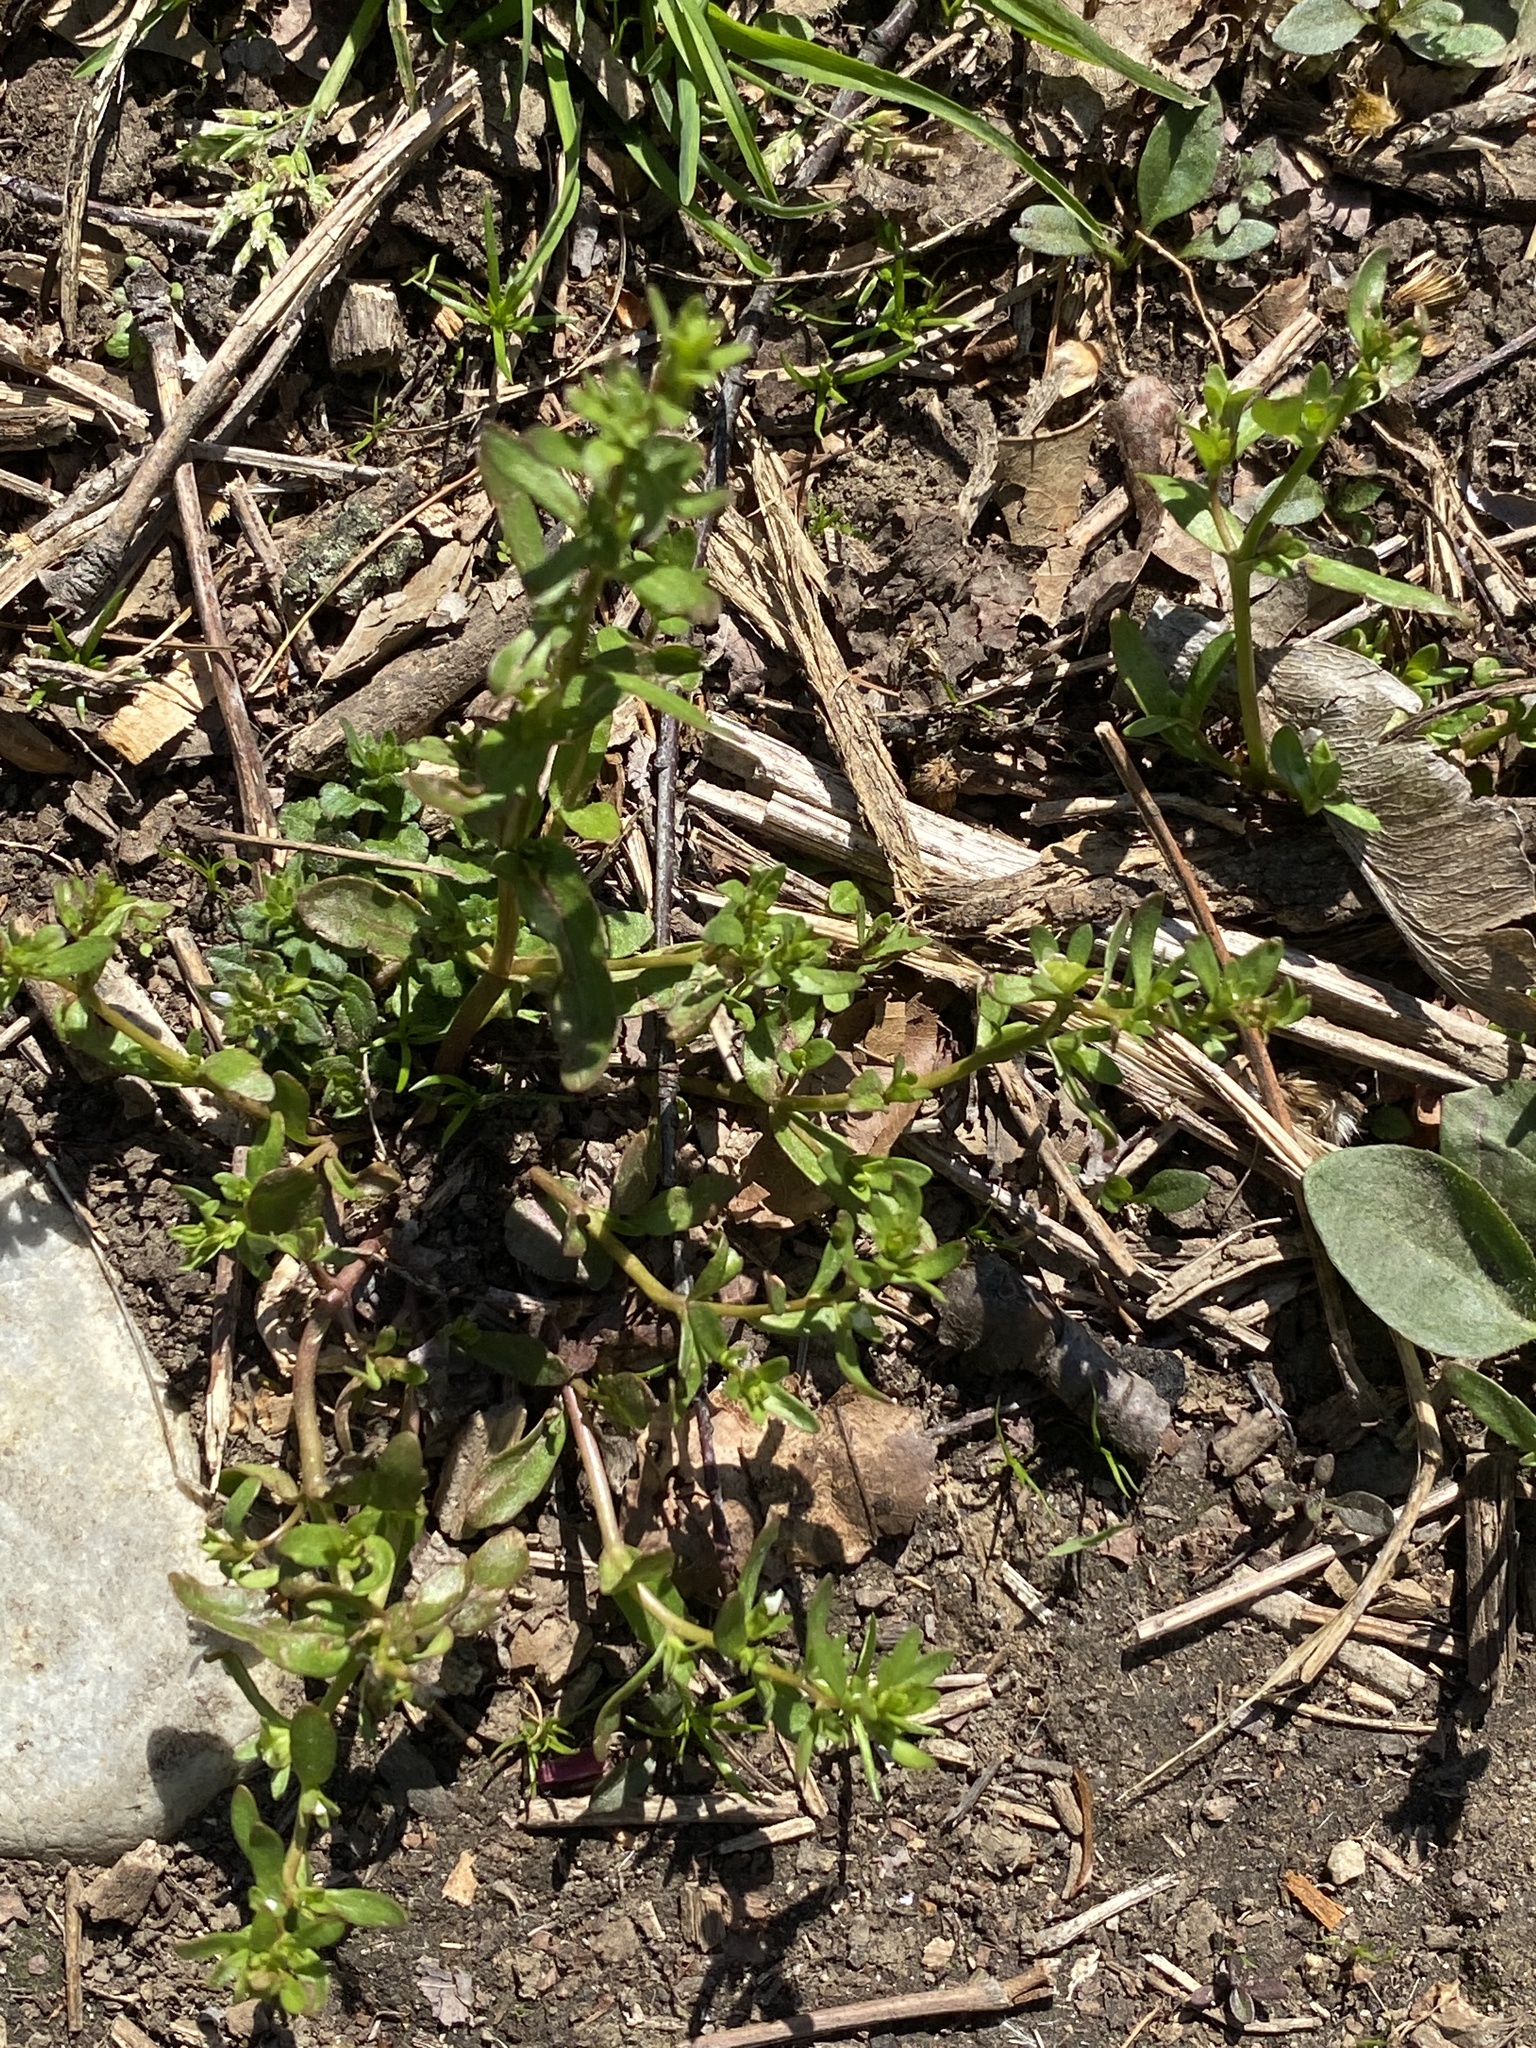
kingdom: Plantae
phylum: Tracheophyta
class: Magnoliopsida
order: Lamiales
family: Plantaginaceae
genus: Veronica
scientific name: Veronica peregrina
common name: Neckweed
